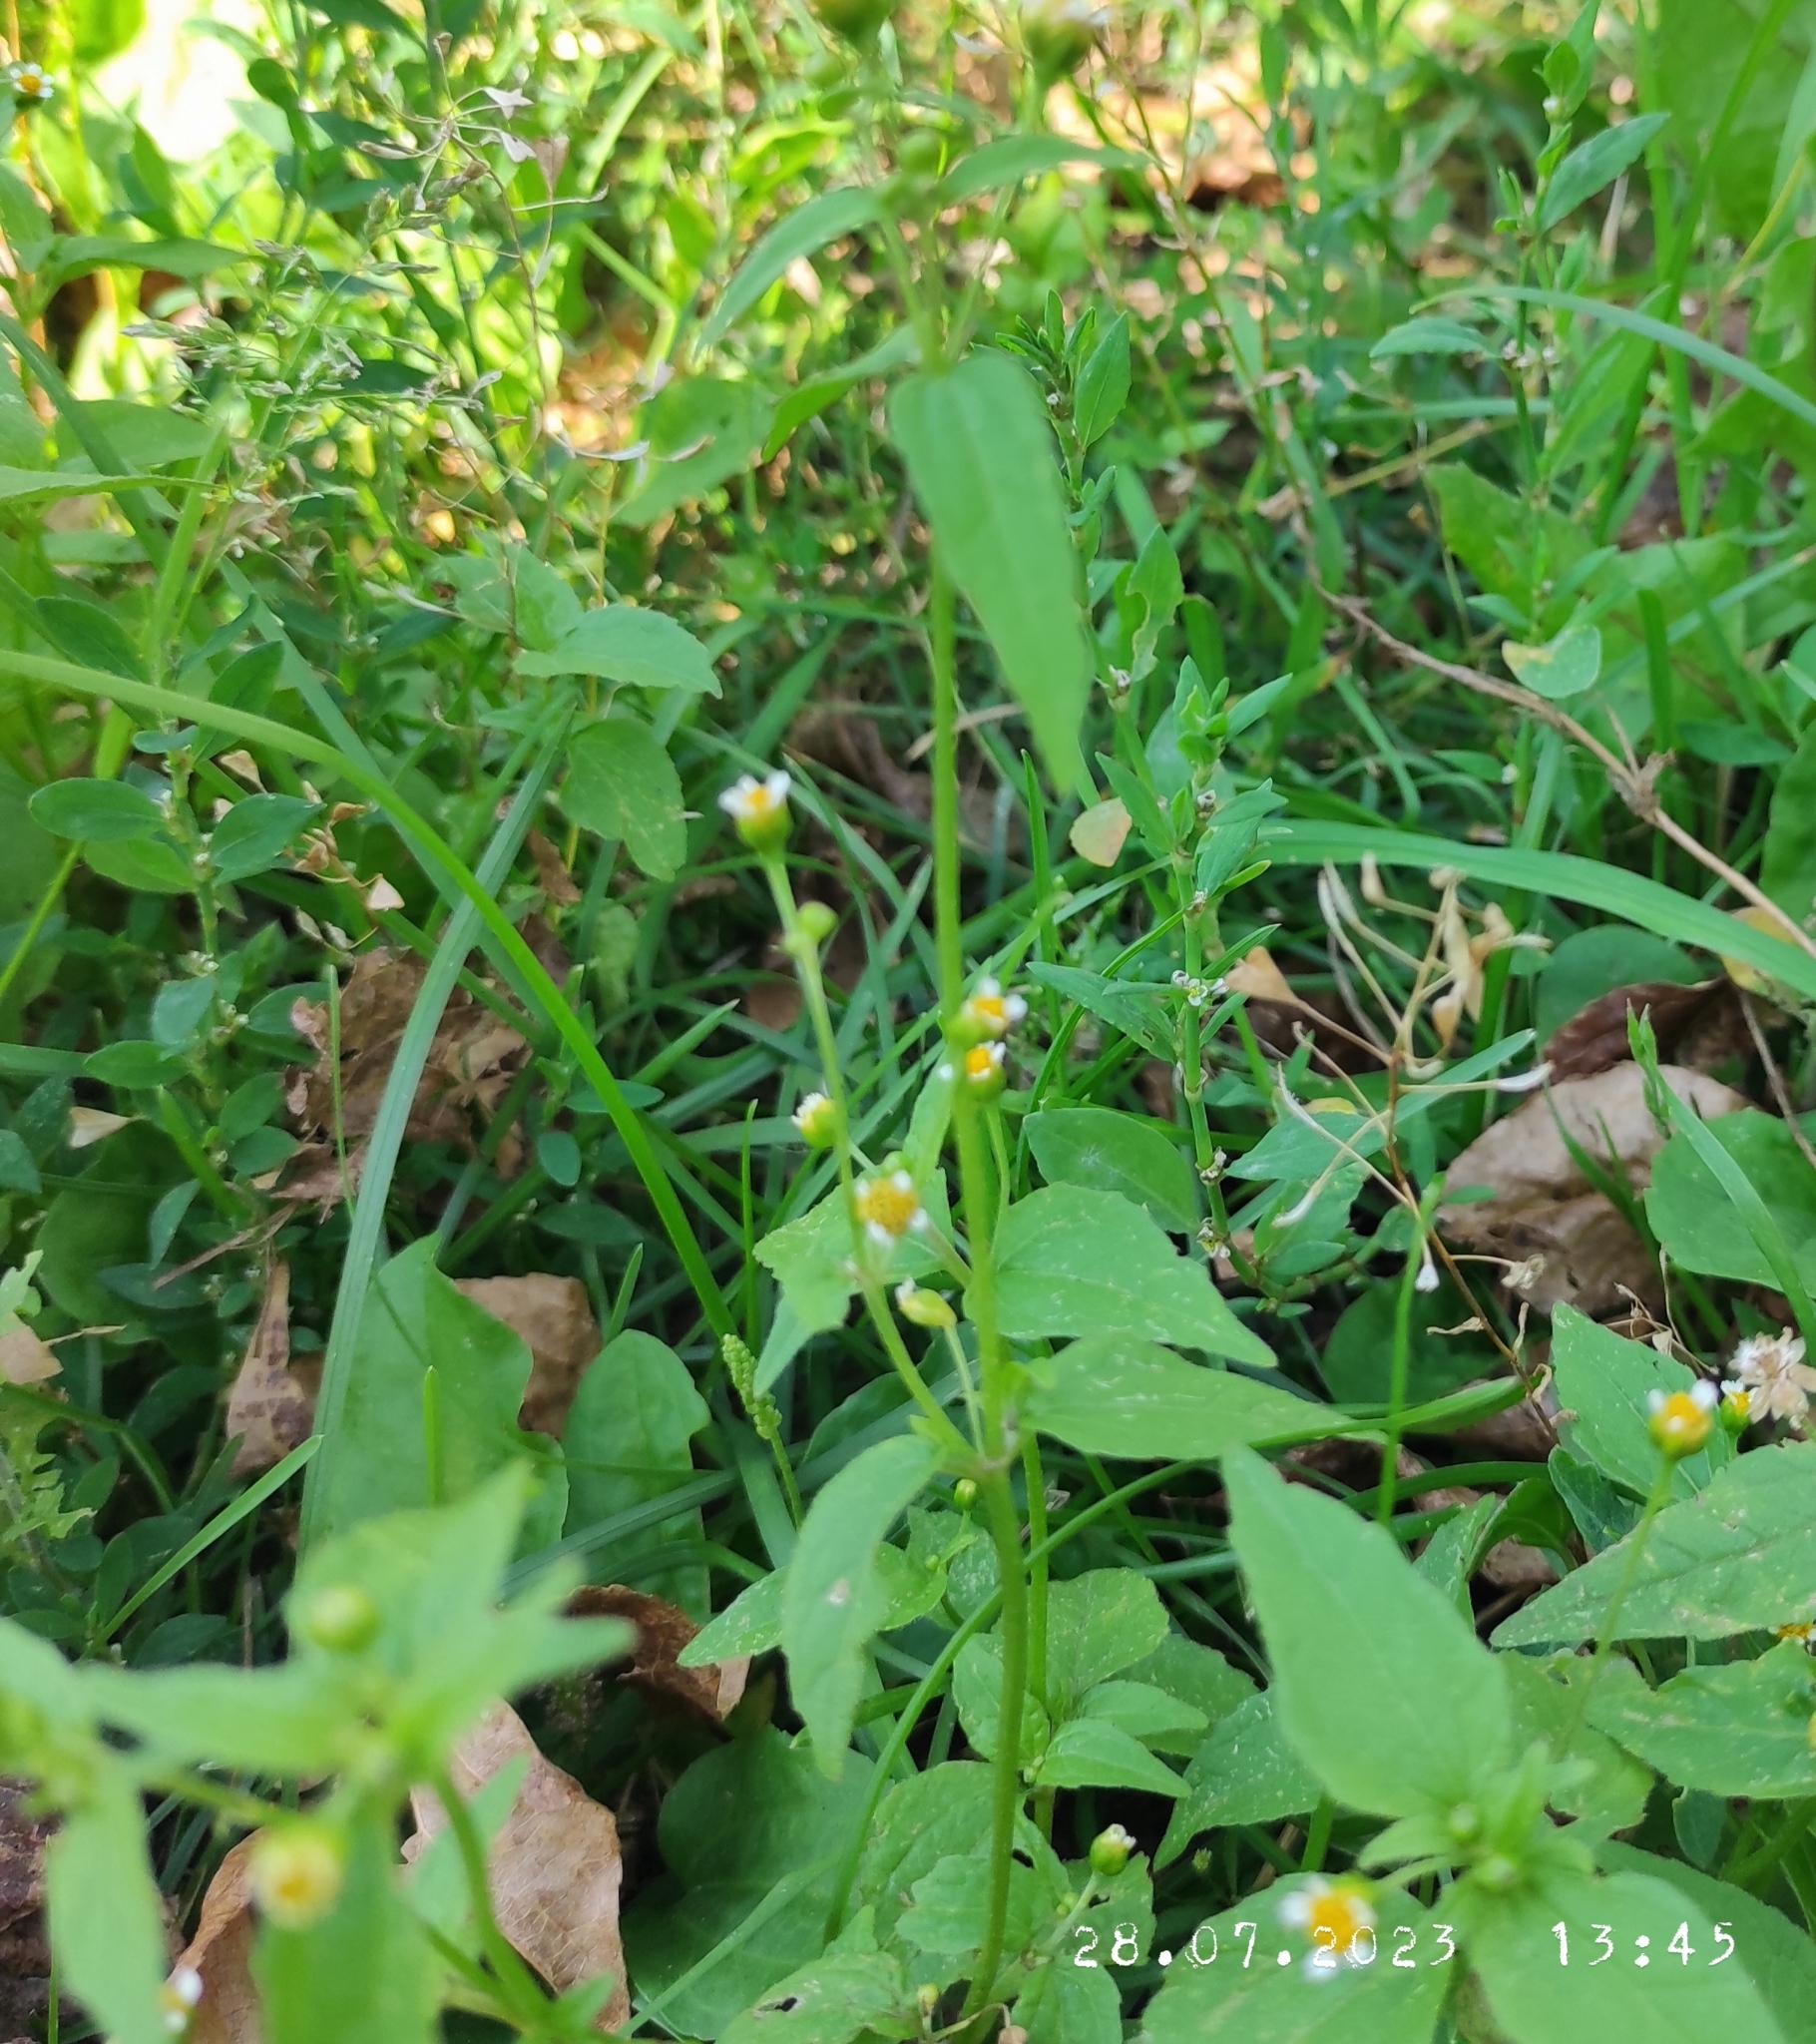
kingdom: Plantae
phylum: Tracheophyta
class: Magnoliopsida
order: Asterales
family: Asteraceae
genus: Erigeron
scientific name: Erigeron canadensis
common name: Canadian fleabane
